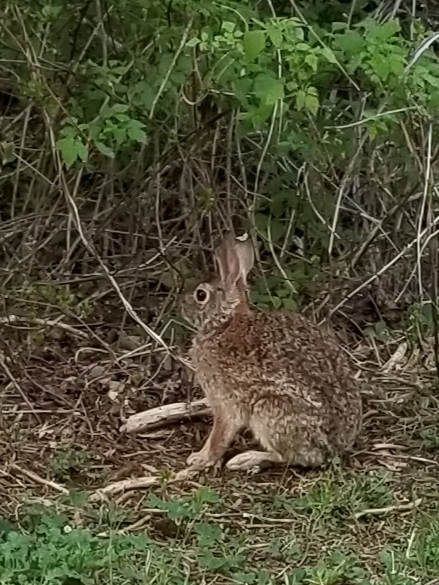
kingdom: Animalia
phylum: Chordata
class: Mammalia
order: Lagomorpha
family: Leporidae
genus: Sylvilagus
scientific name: Sylvilagus floridanus
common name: Eastern cottontail
